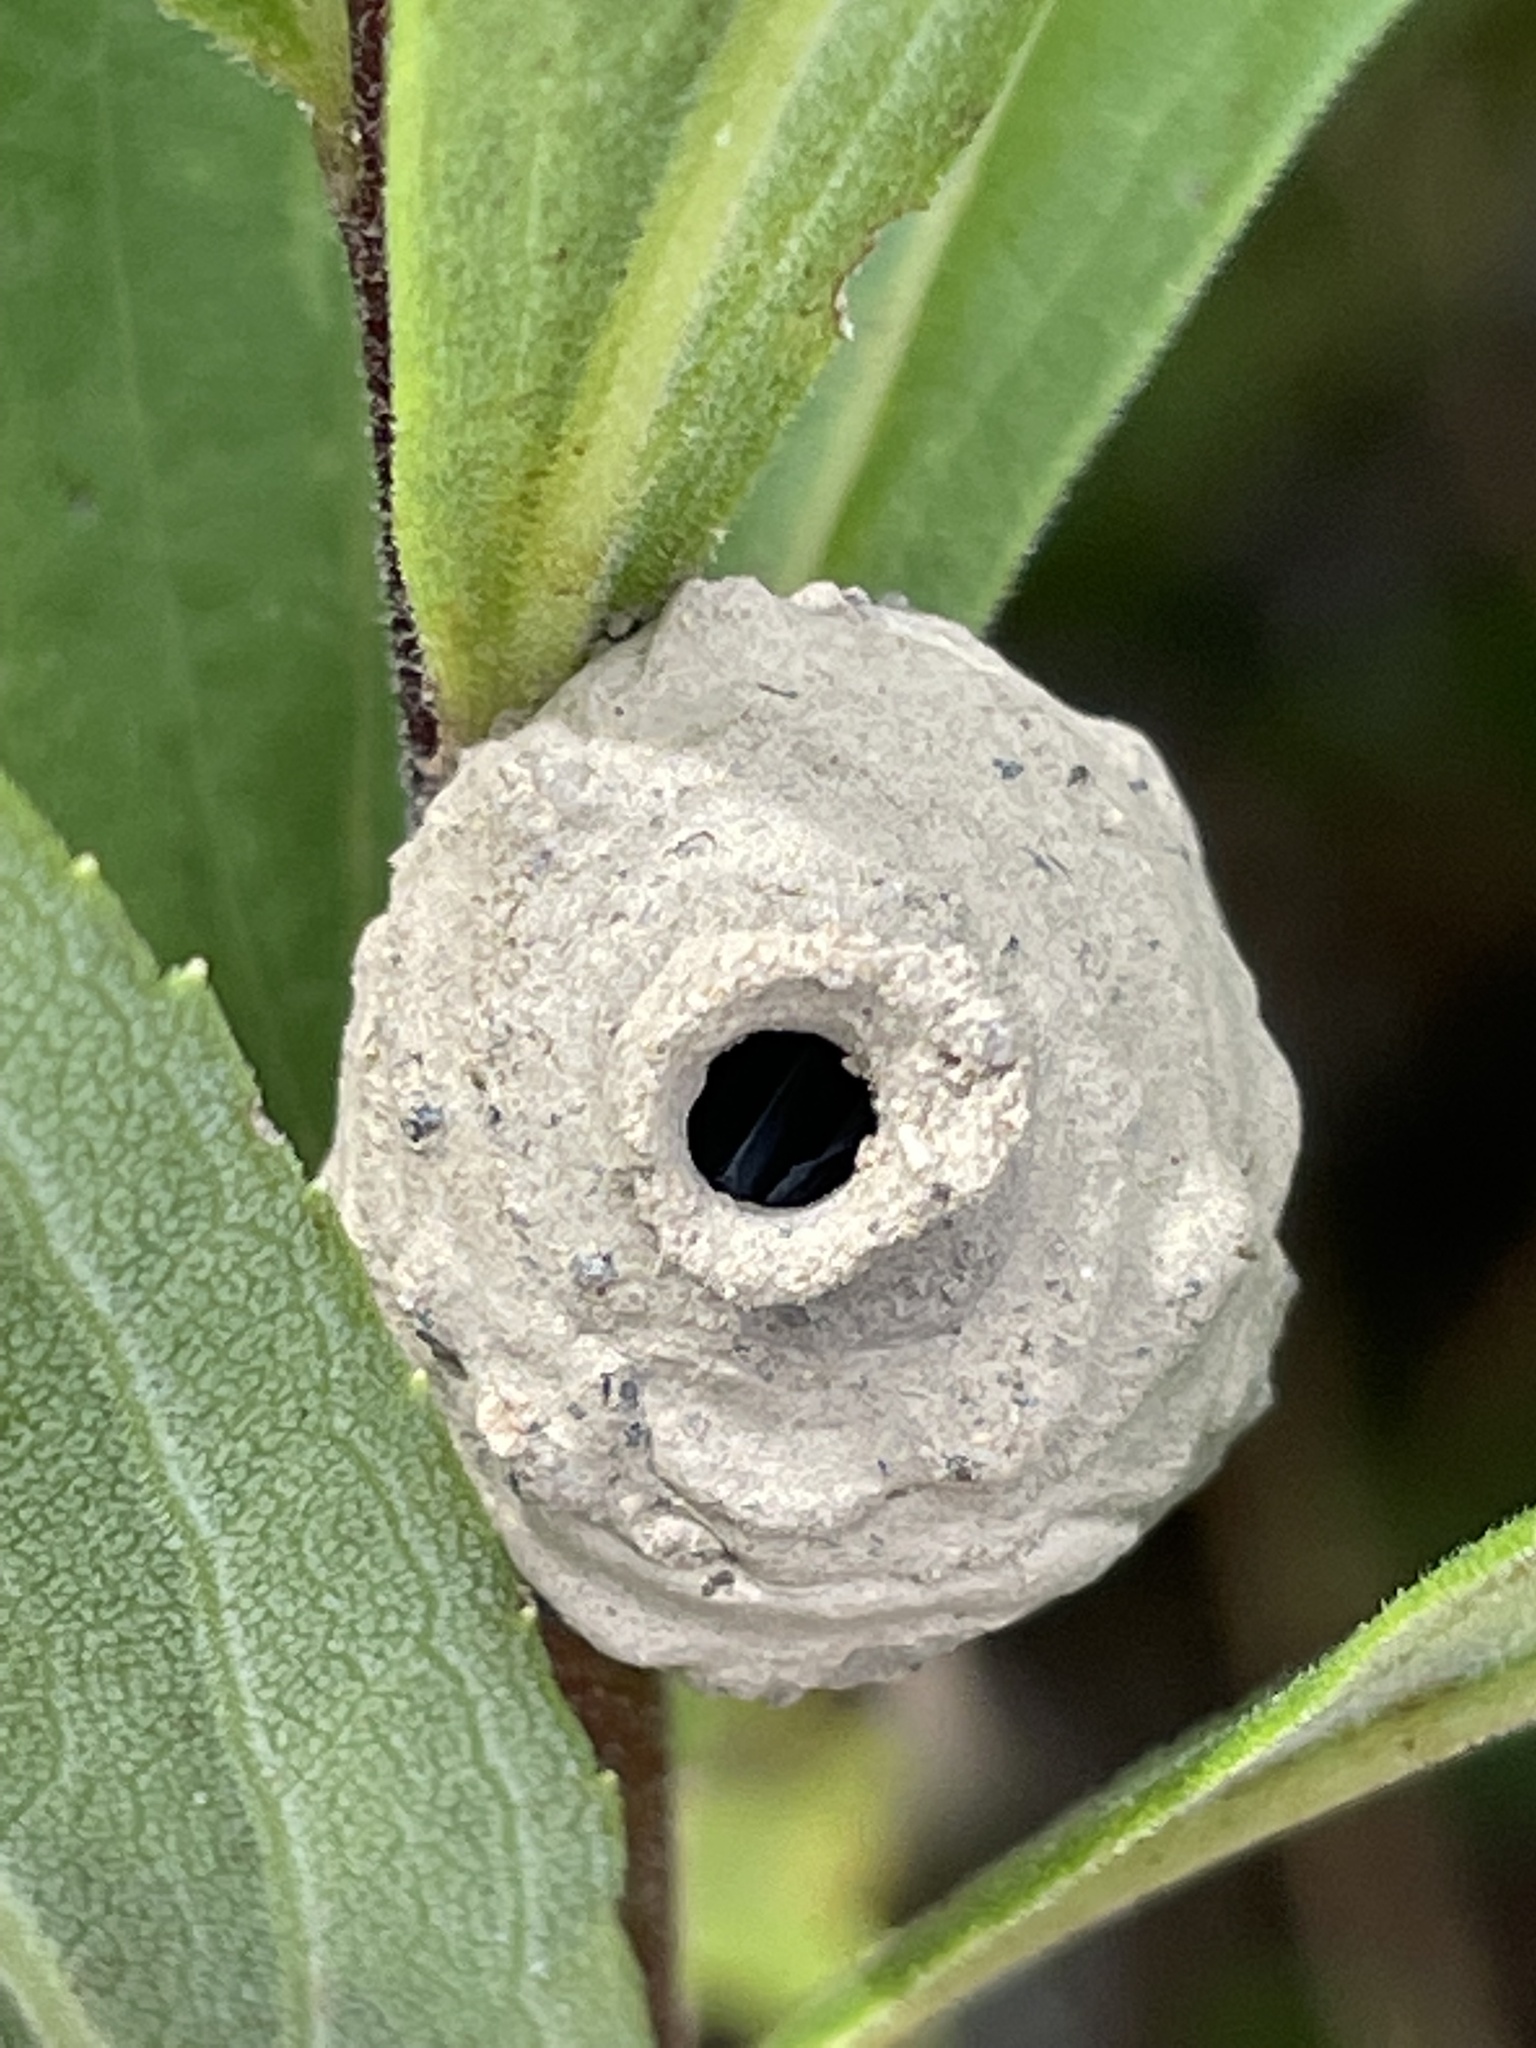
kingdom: Animalia
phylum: Arthropoda
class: Insecta
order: Hymenoptera
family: Vespidae
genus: Eumenes
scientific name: Eumenes fraternus
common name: Fraternal potter wasp
